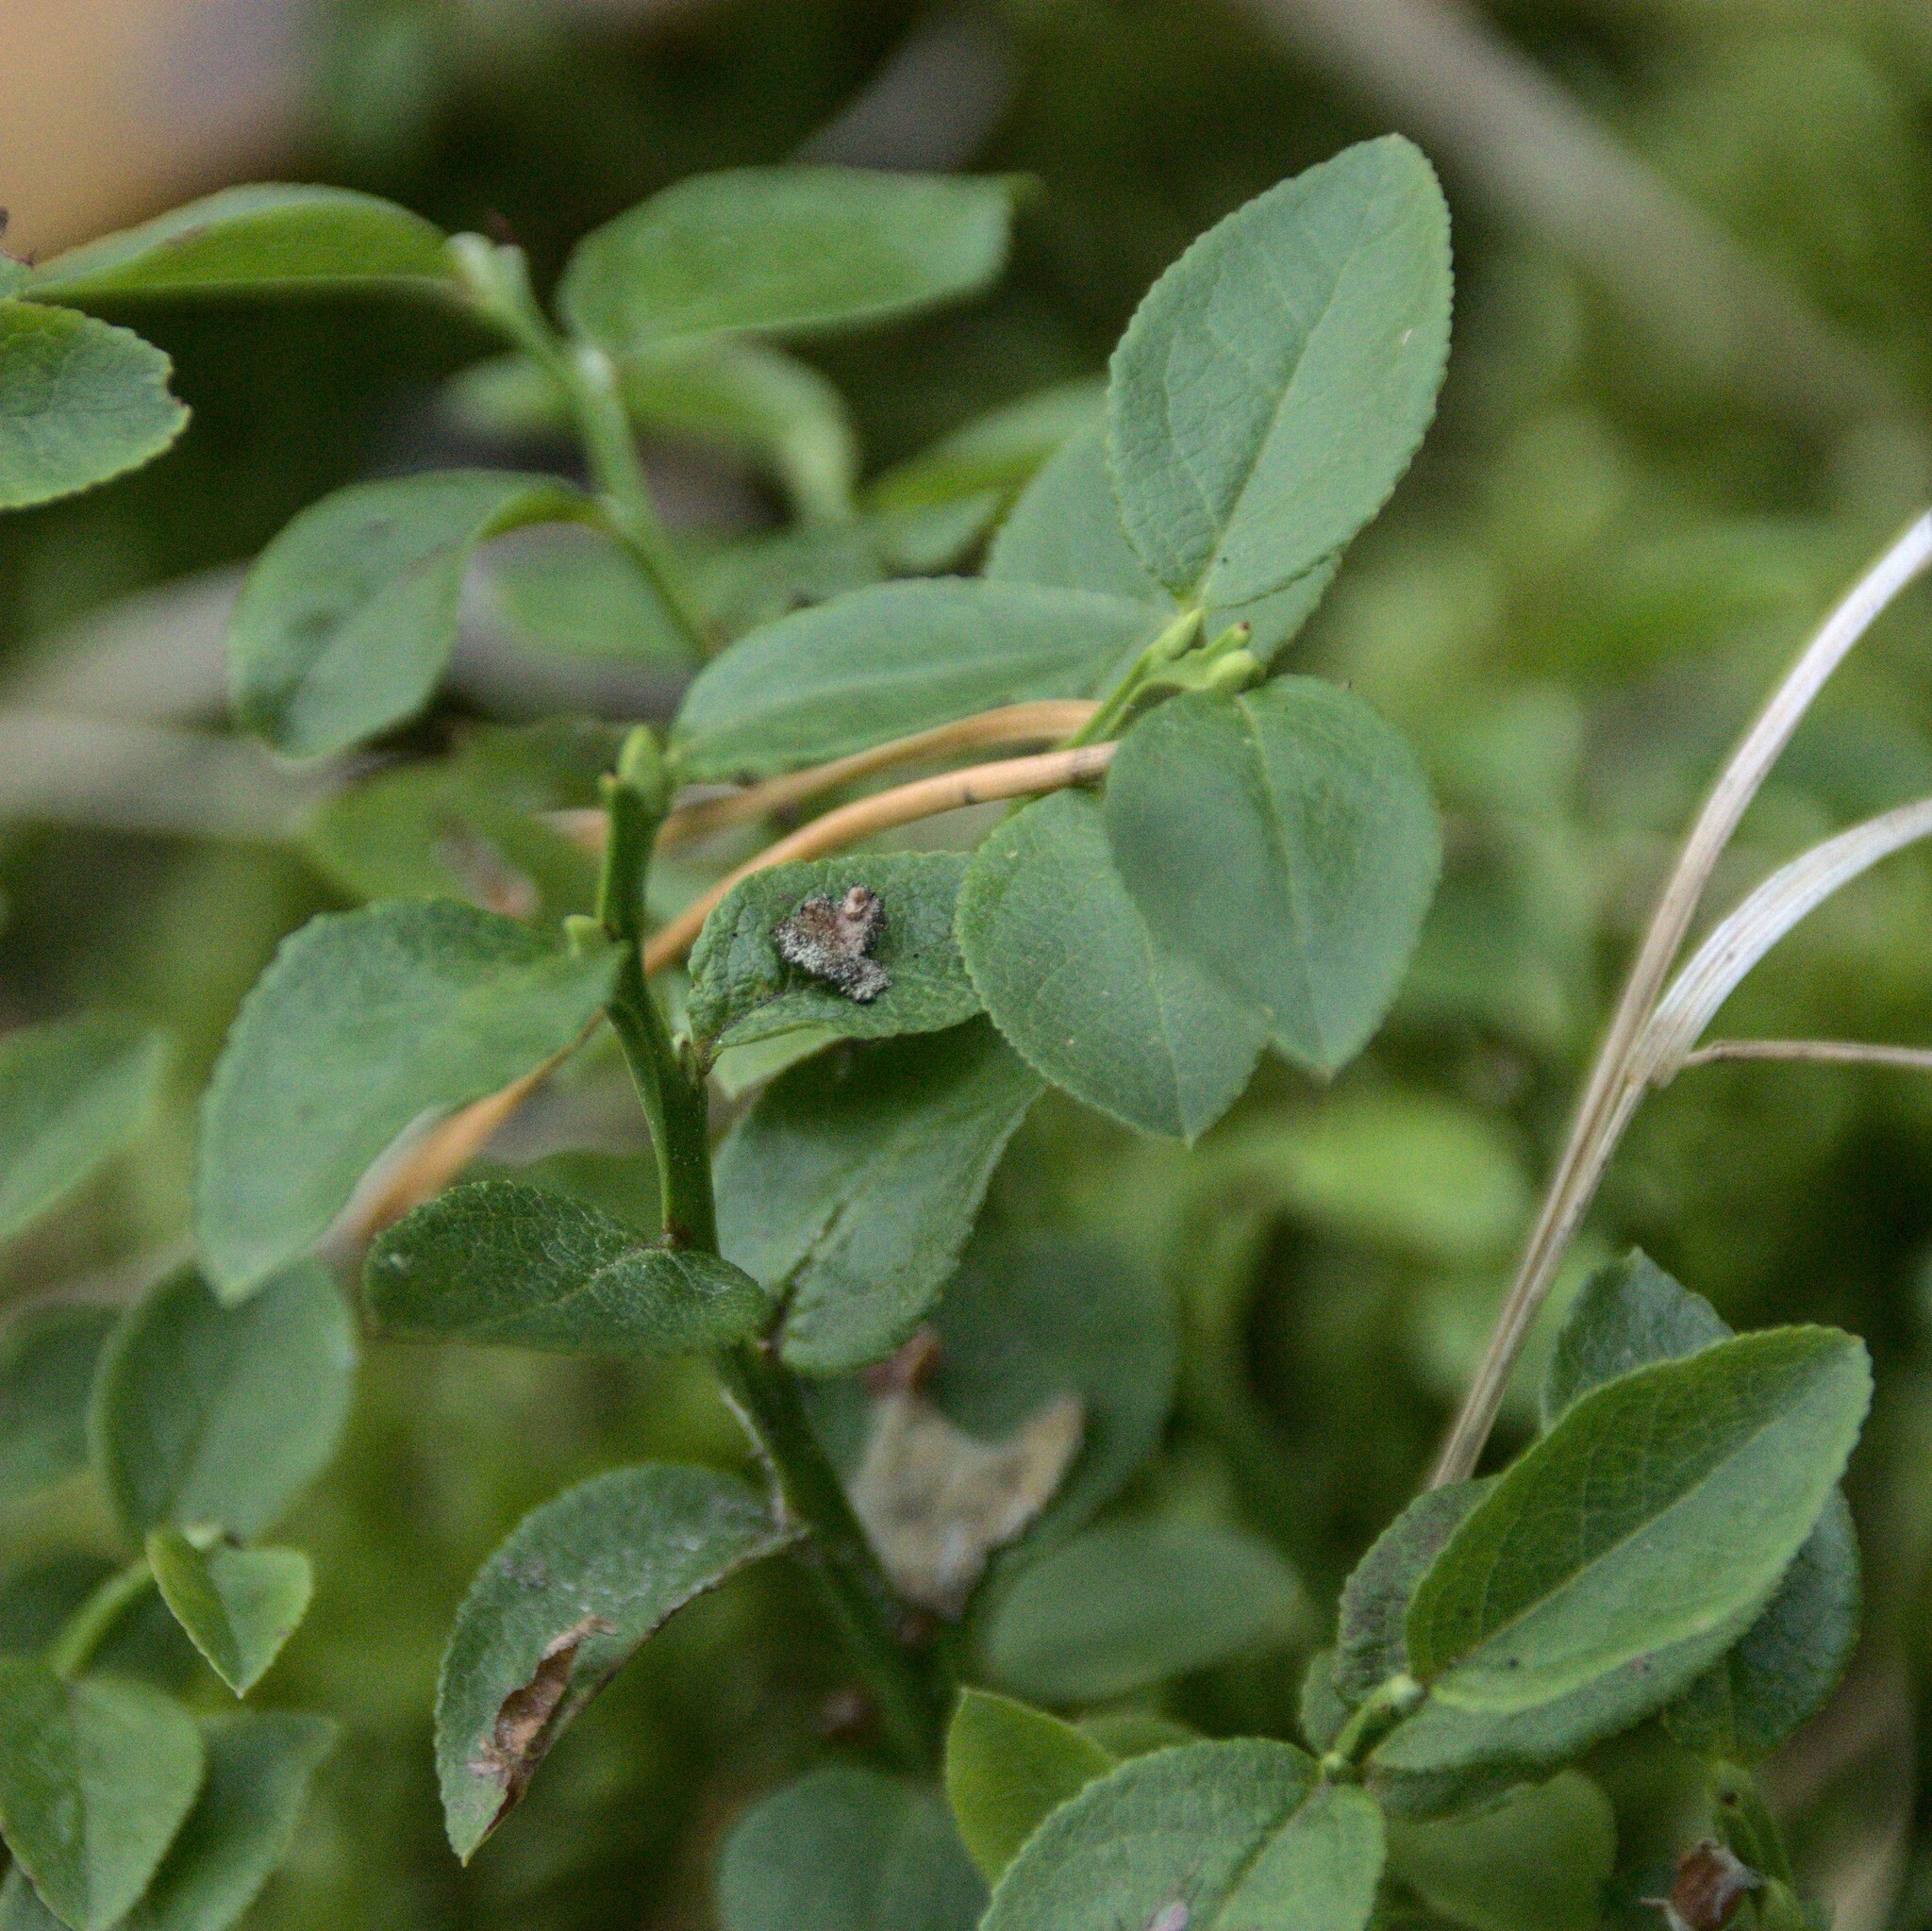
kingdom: Plantae
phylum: Tracheophyta
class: Magnoliopsida
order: Ericales
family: Ericaceae
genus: Vaccinium
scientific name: Vaccinium myrtillus
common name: Bilberry
